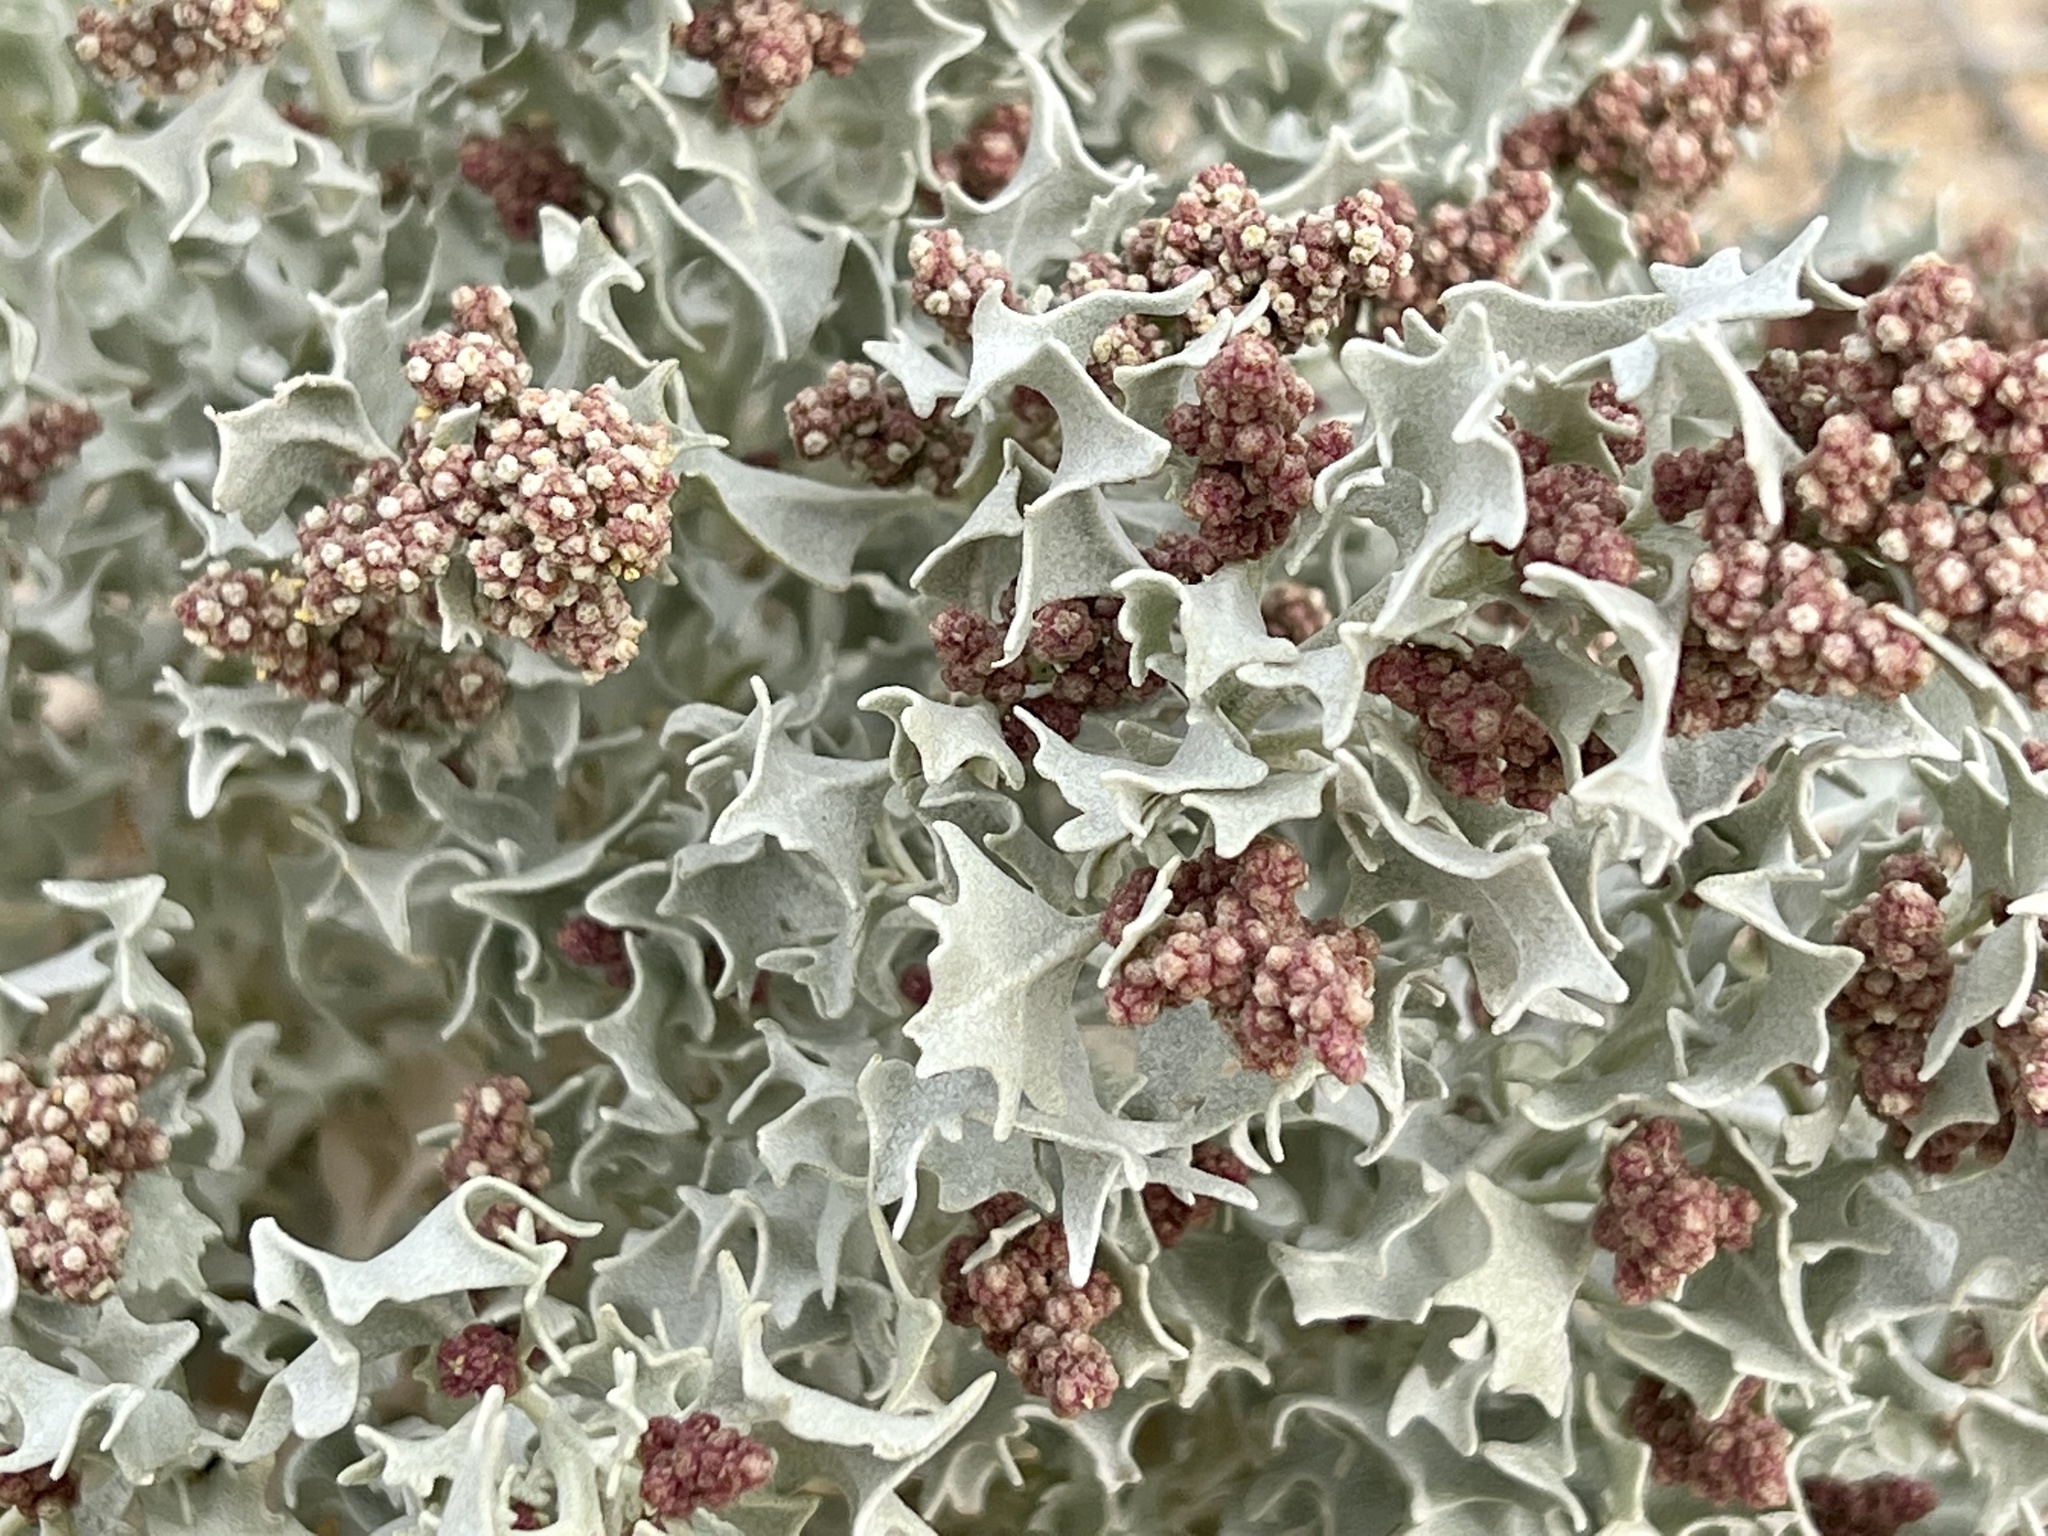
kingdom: Plantae
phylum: Tracheophyta
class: Magnoliopsida
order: Caryophyllales
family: Amaranthaceae
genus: Atriplex
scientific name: Atriplex hymenelytra
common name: Desert-holly
